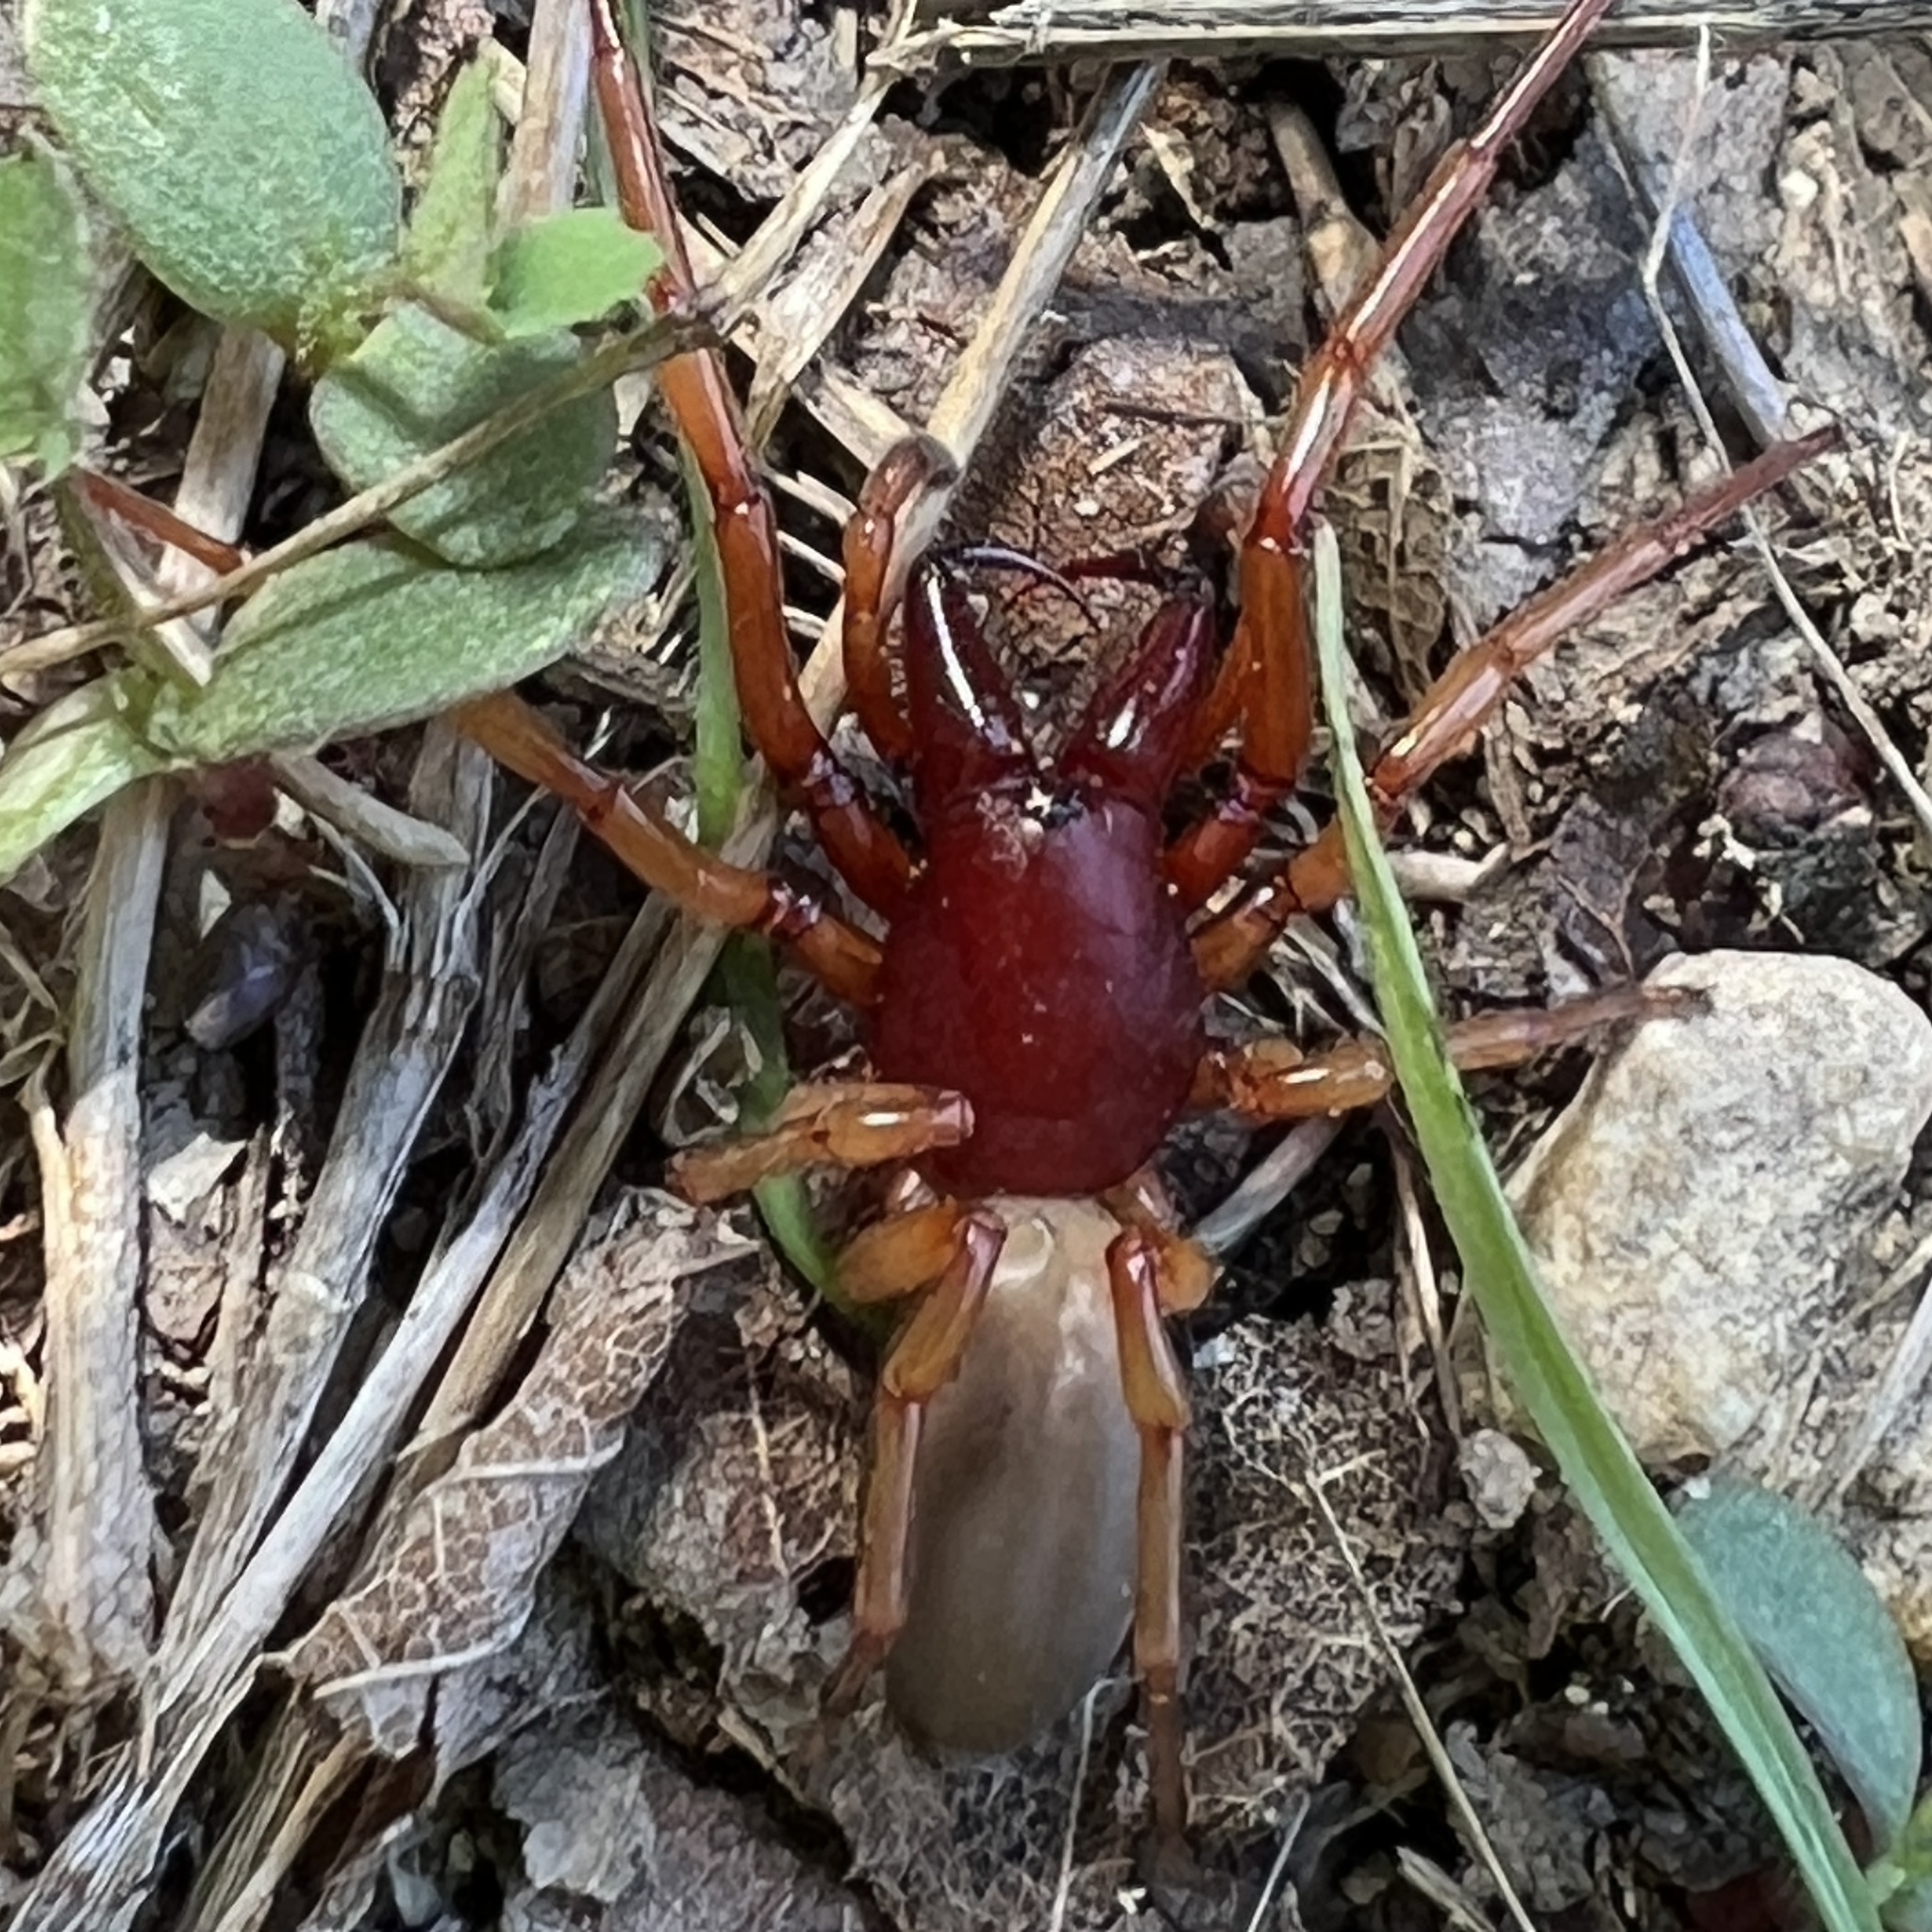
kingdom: Animalia
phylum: Arthropoda
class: Arachnida
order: Araneae
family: Dysderidae
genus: Dysdera
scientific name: Dysdera crocata
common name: Woodlouse spider
